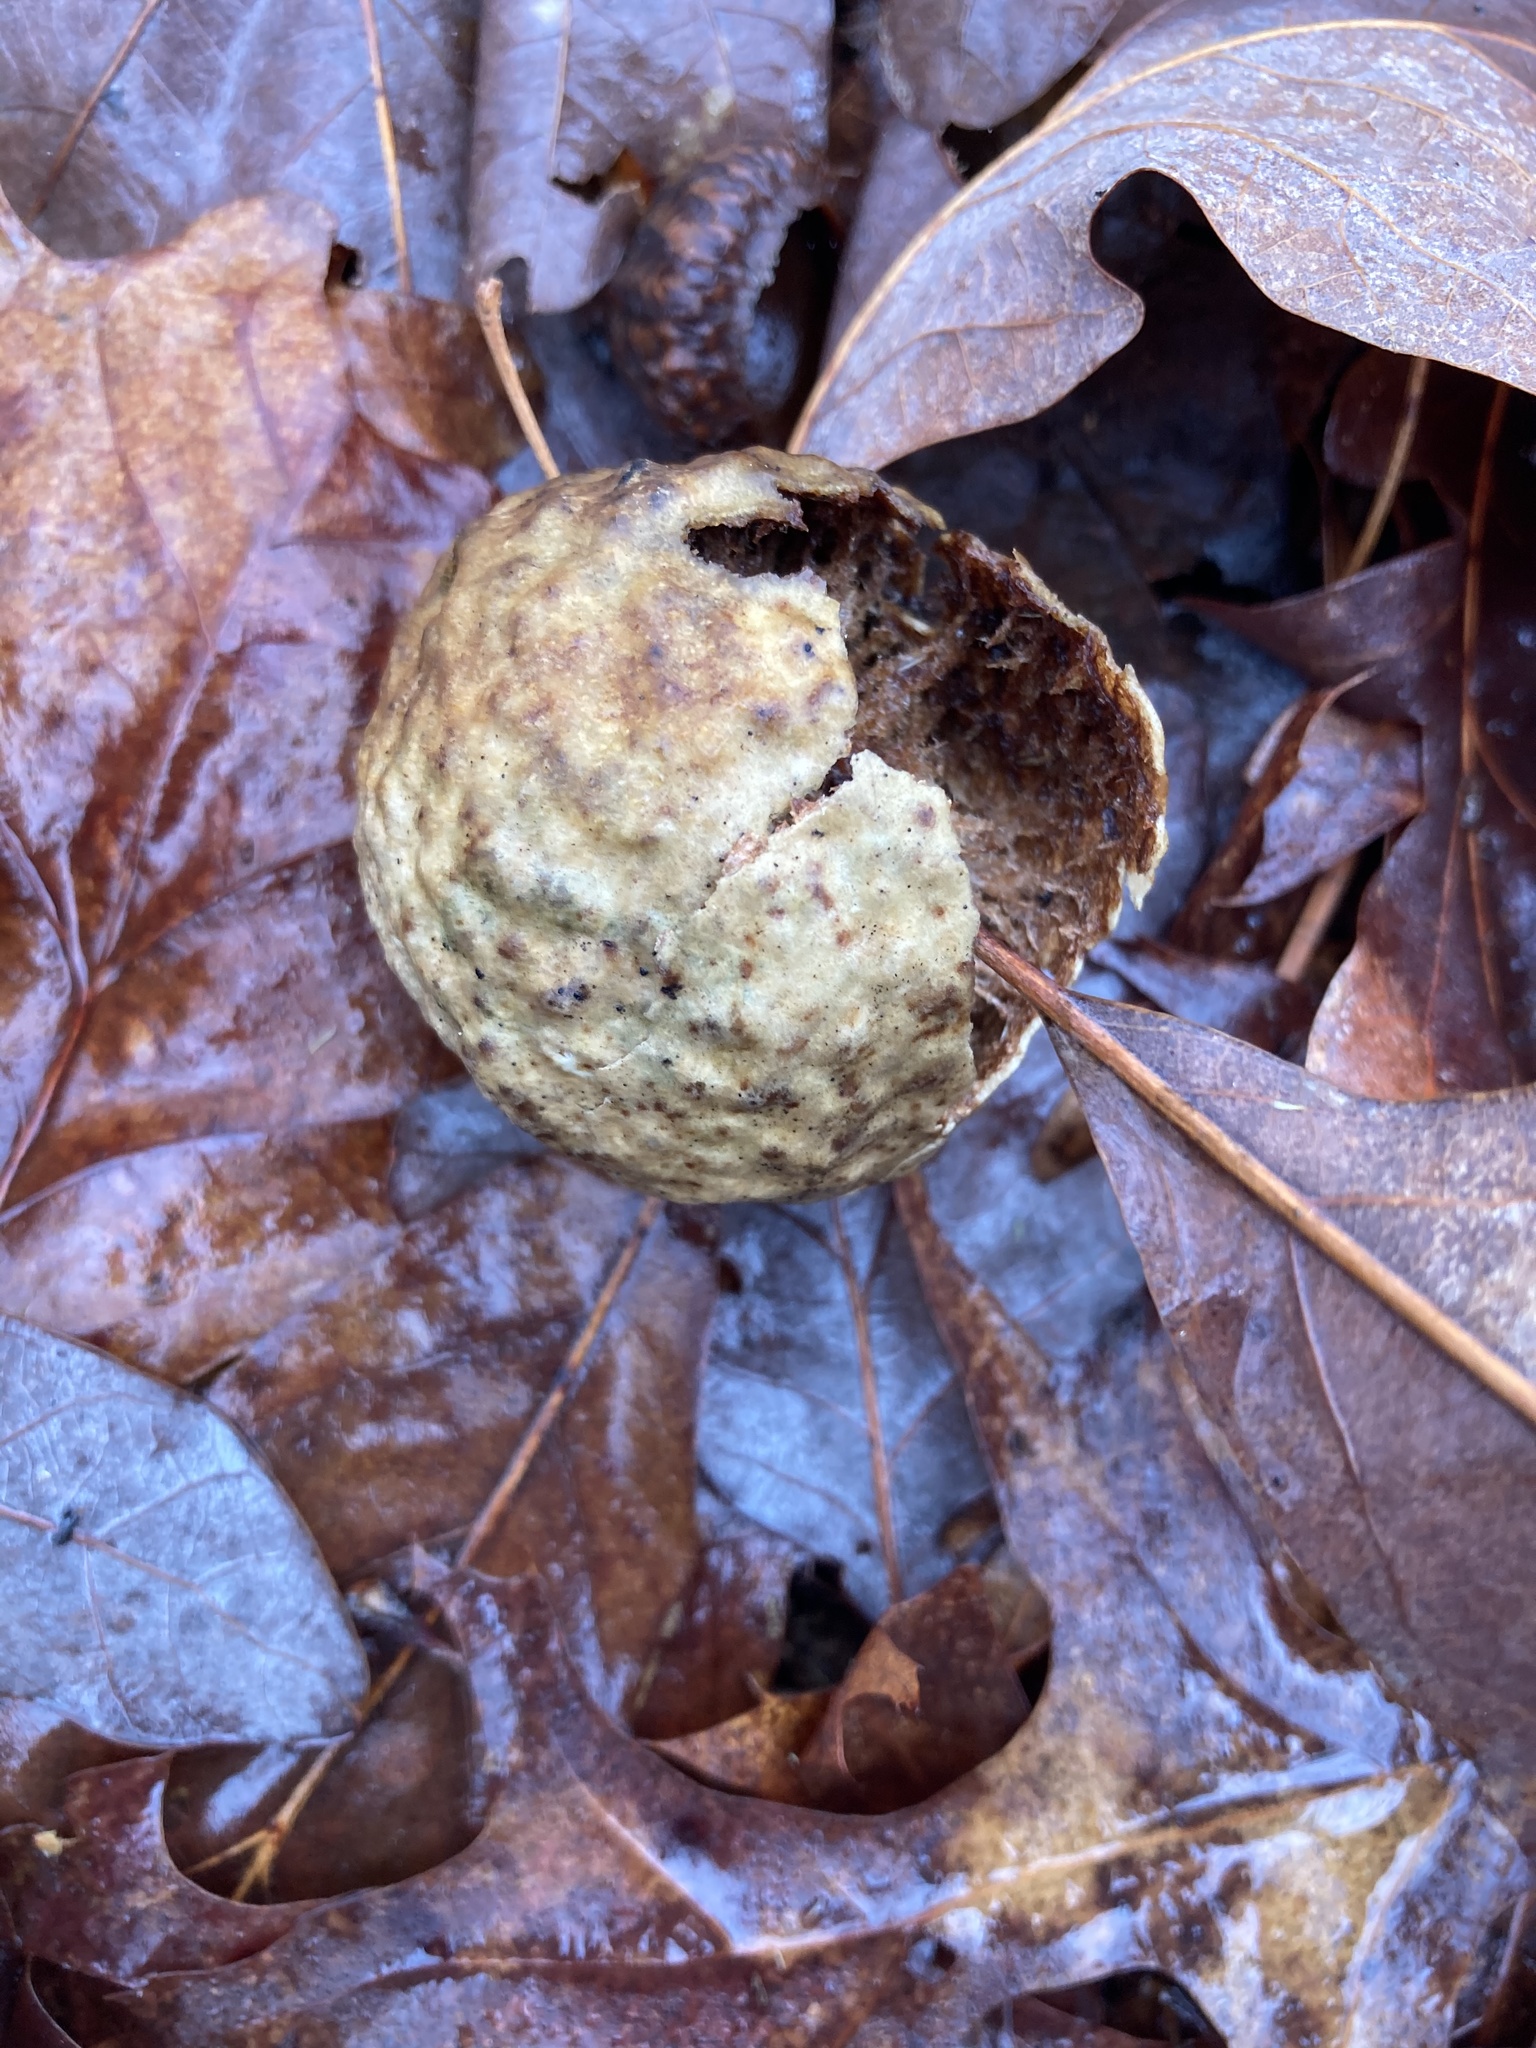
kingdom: Animalia
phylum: Arthropoda
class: Insecta
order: Hymenoptera
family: Cynipidae
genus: Amphibolips
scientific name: Amphibolips
